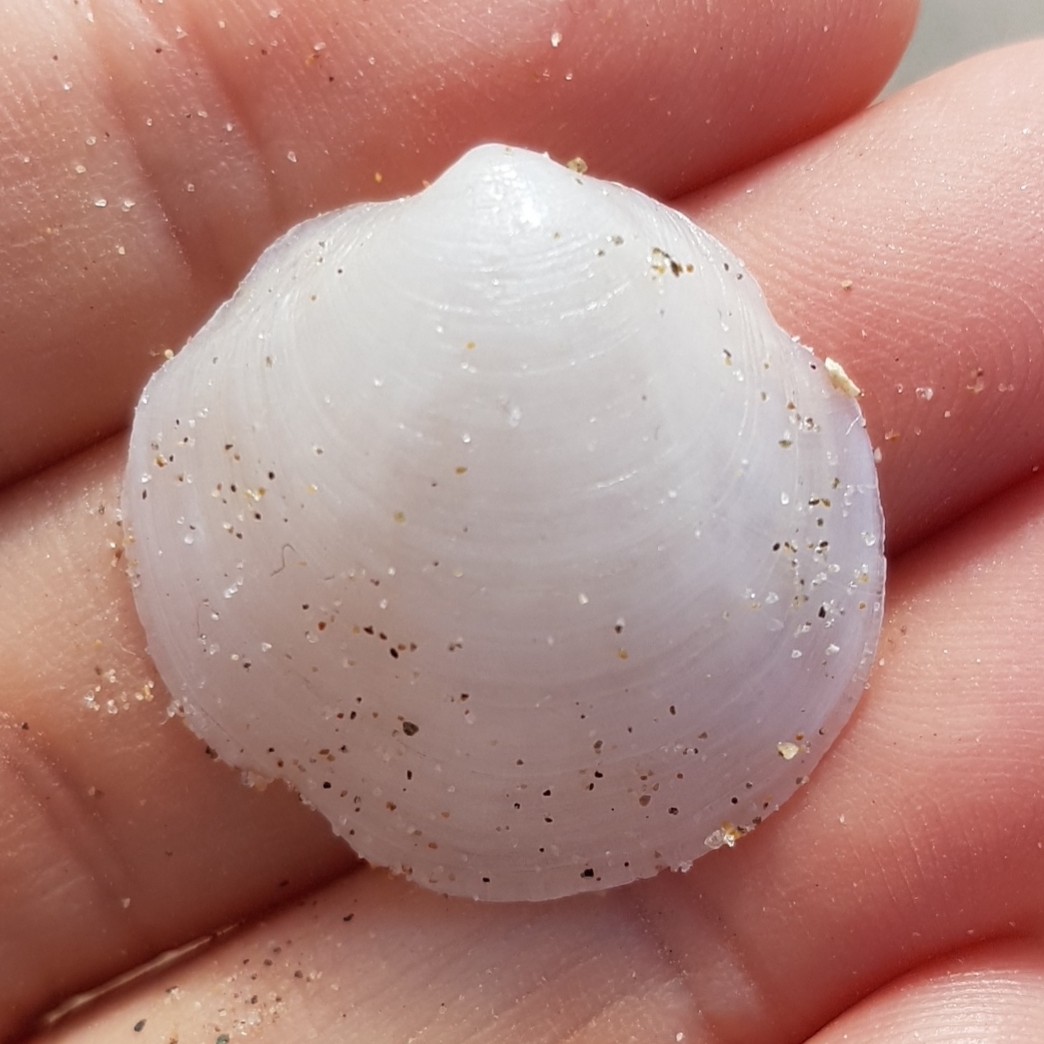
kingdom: Animalia
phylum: Mollusca
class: Bivalvia
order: Lucinida
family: Lucinidae
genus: Loripes
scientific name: Loripes orbiculatus
